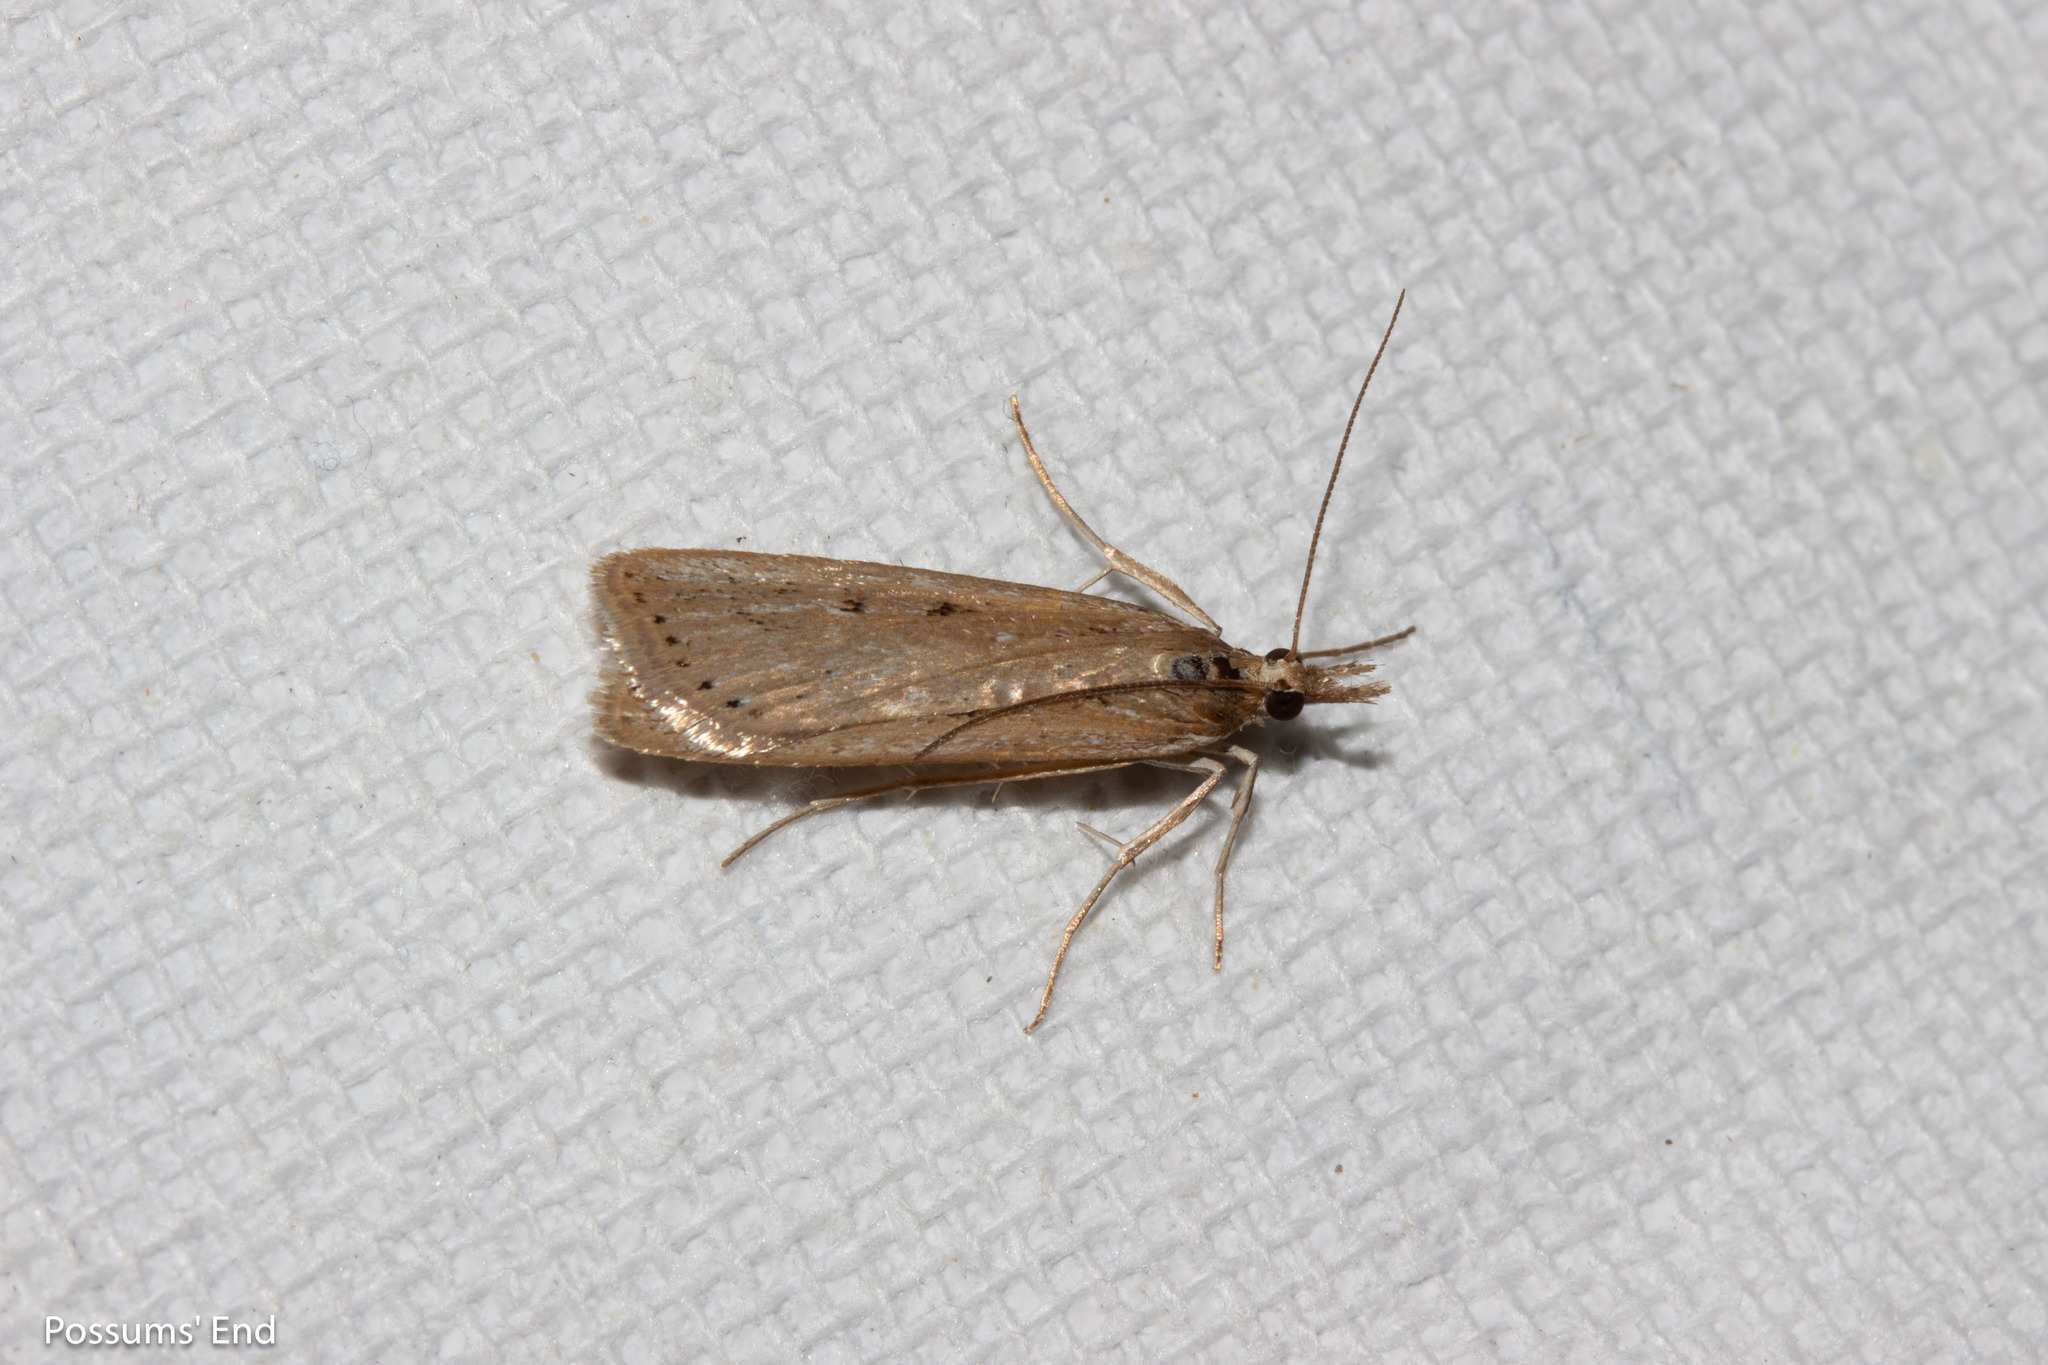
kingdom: Animalia
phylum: Arthropoda
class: Insecta
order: Lepidoptera
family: Crambidae
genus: Eudonia
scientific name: Eudonia sabulosella
